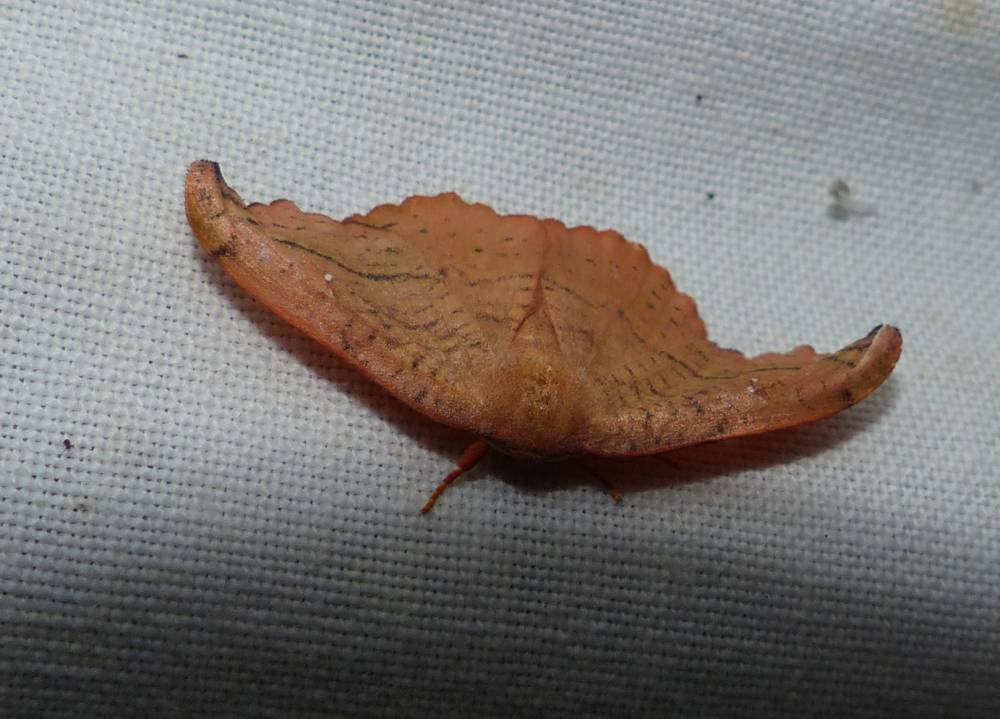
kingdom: Animalia
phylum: Arthropoda
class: Insecta
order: Lepidoptera
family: Drepanidae
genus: Oreta
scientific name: Oreta rosea
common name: Rose hooktip
